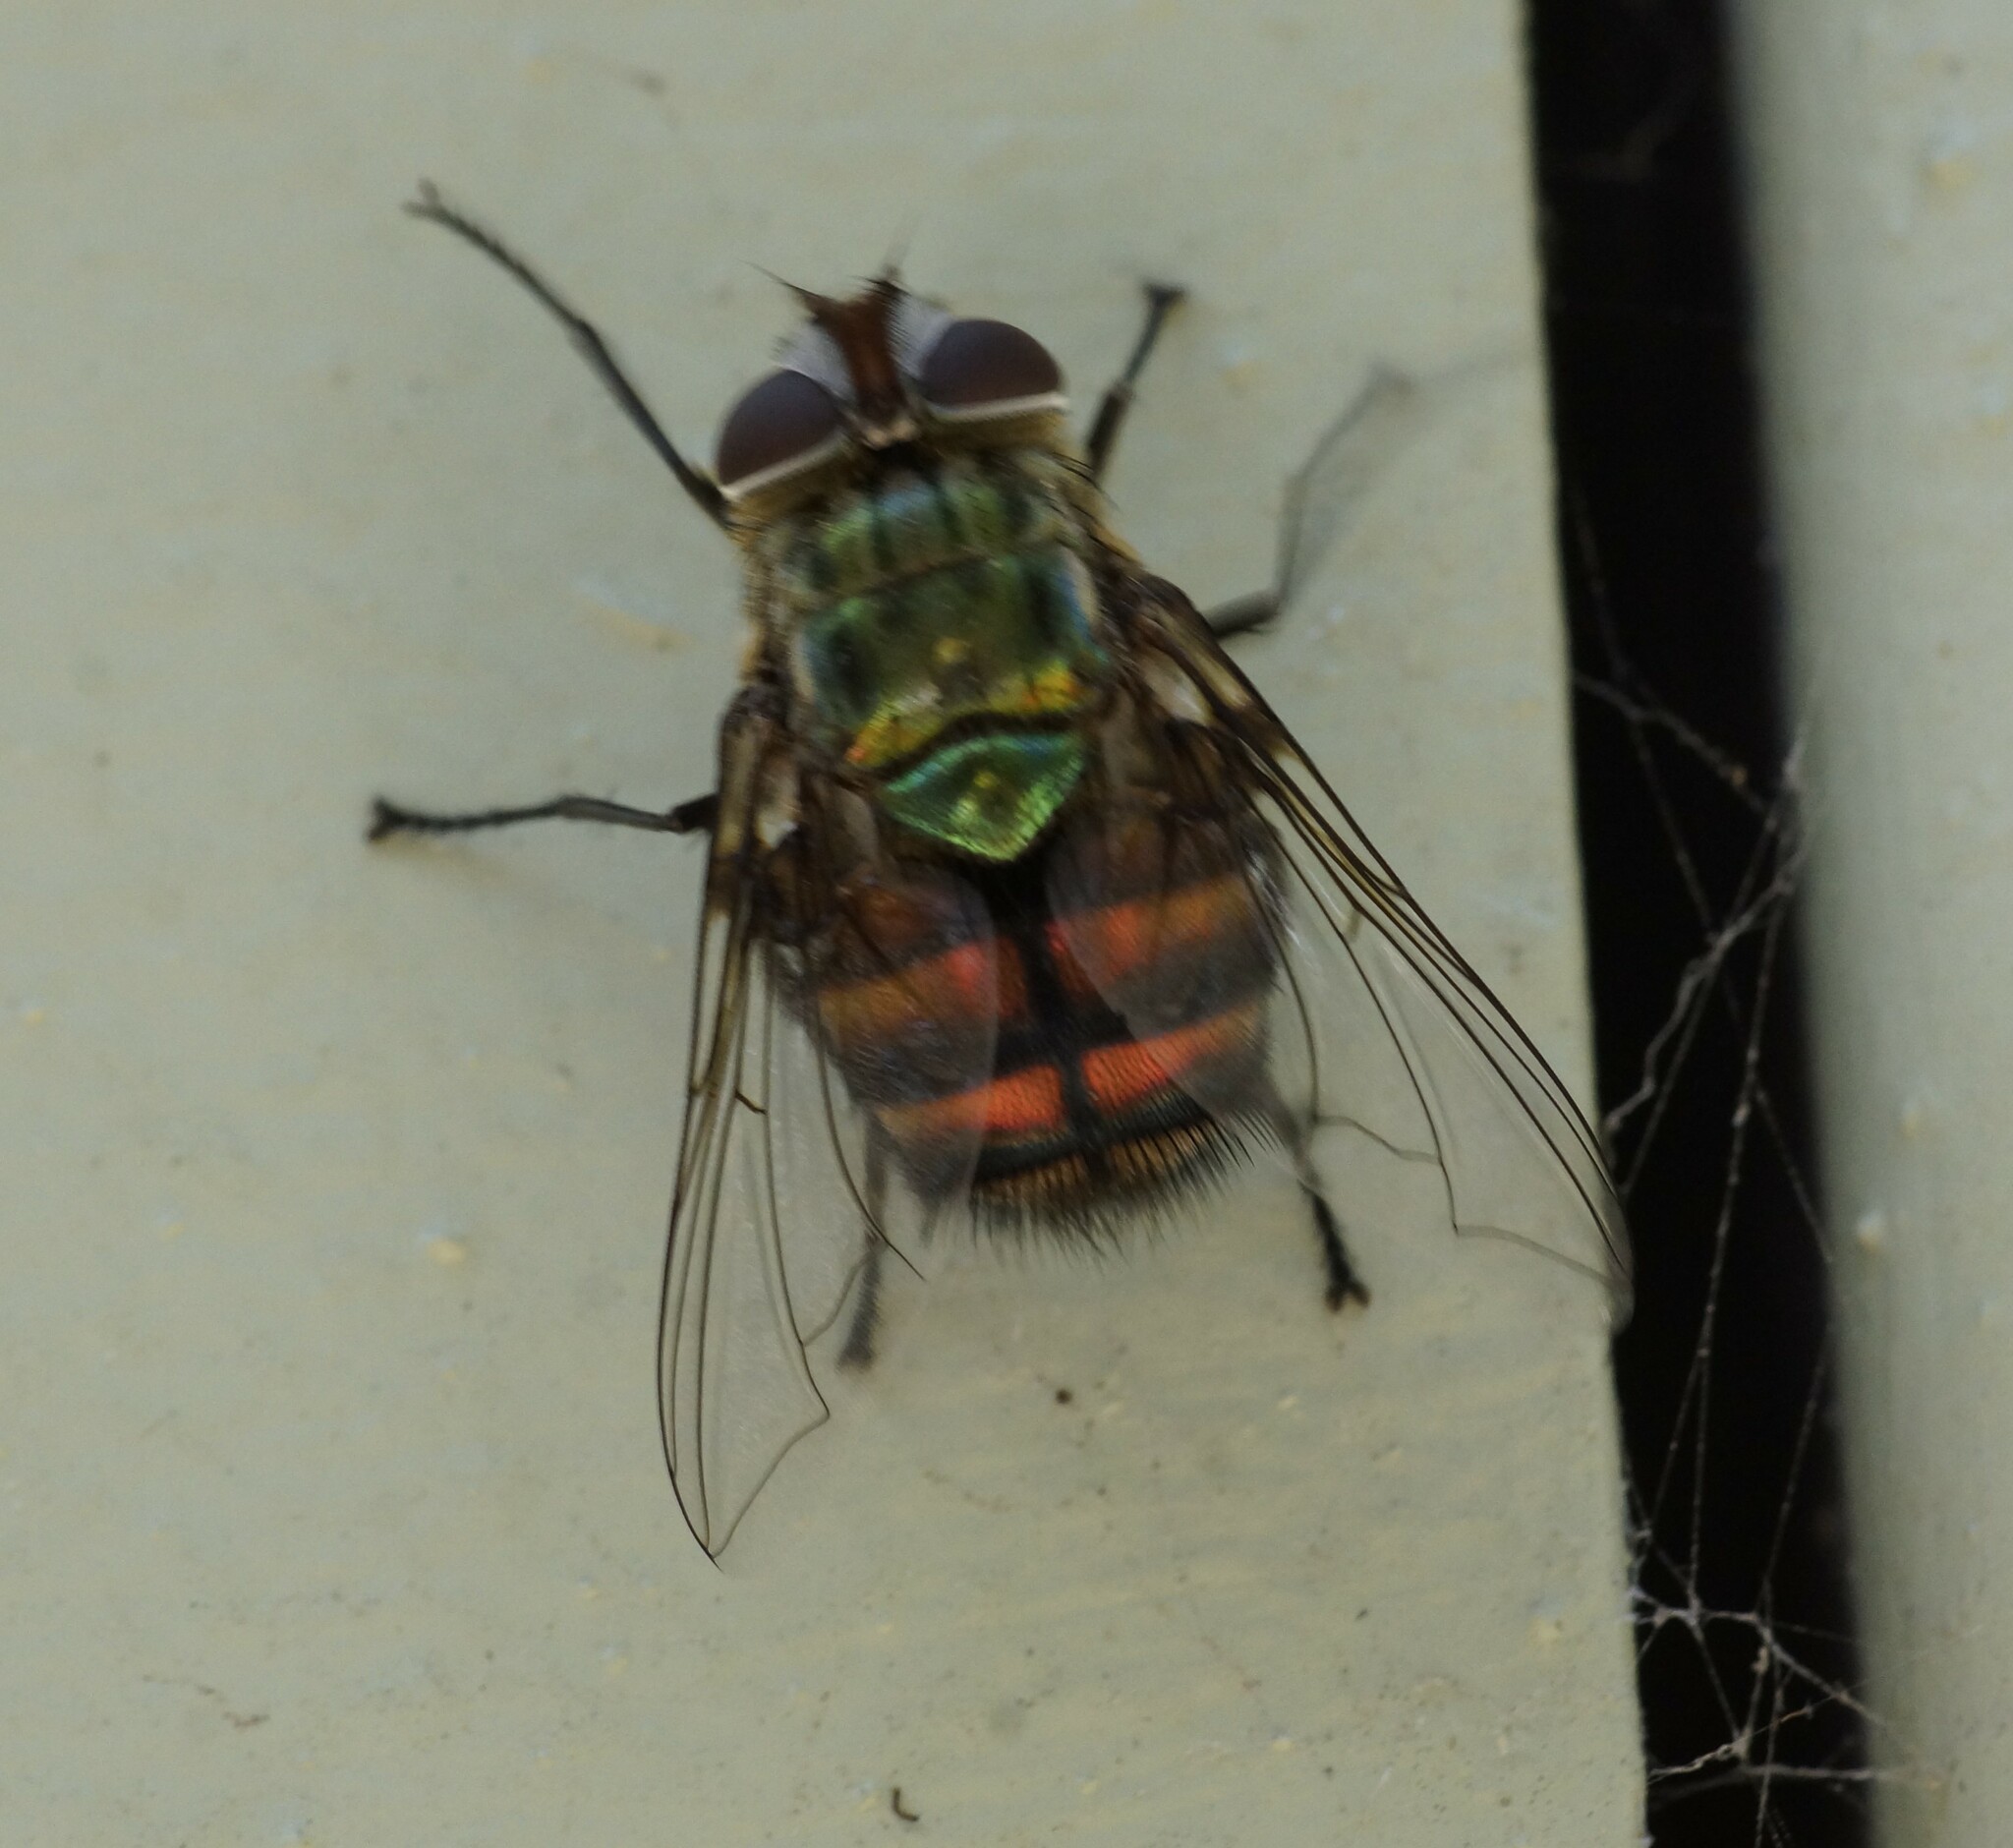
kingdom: Animalia
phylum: Arthropoda
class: Insecta
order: Diptera
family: Tachinidae
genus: Chrysorutilia
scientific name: Chrysorutilia
